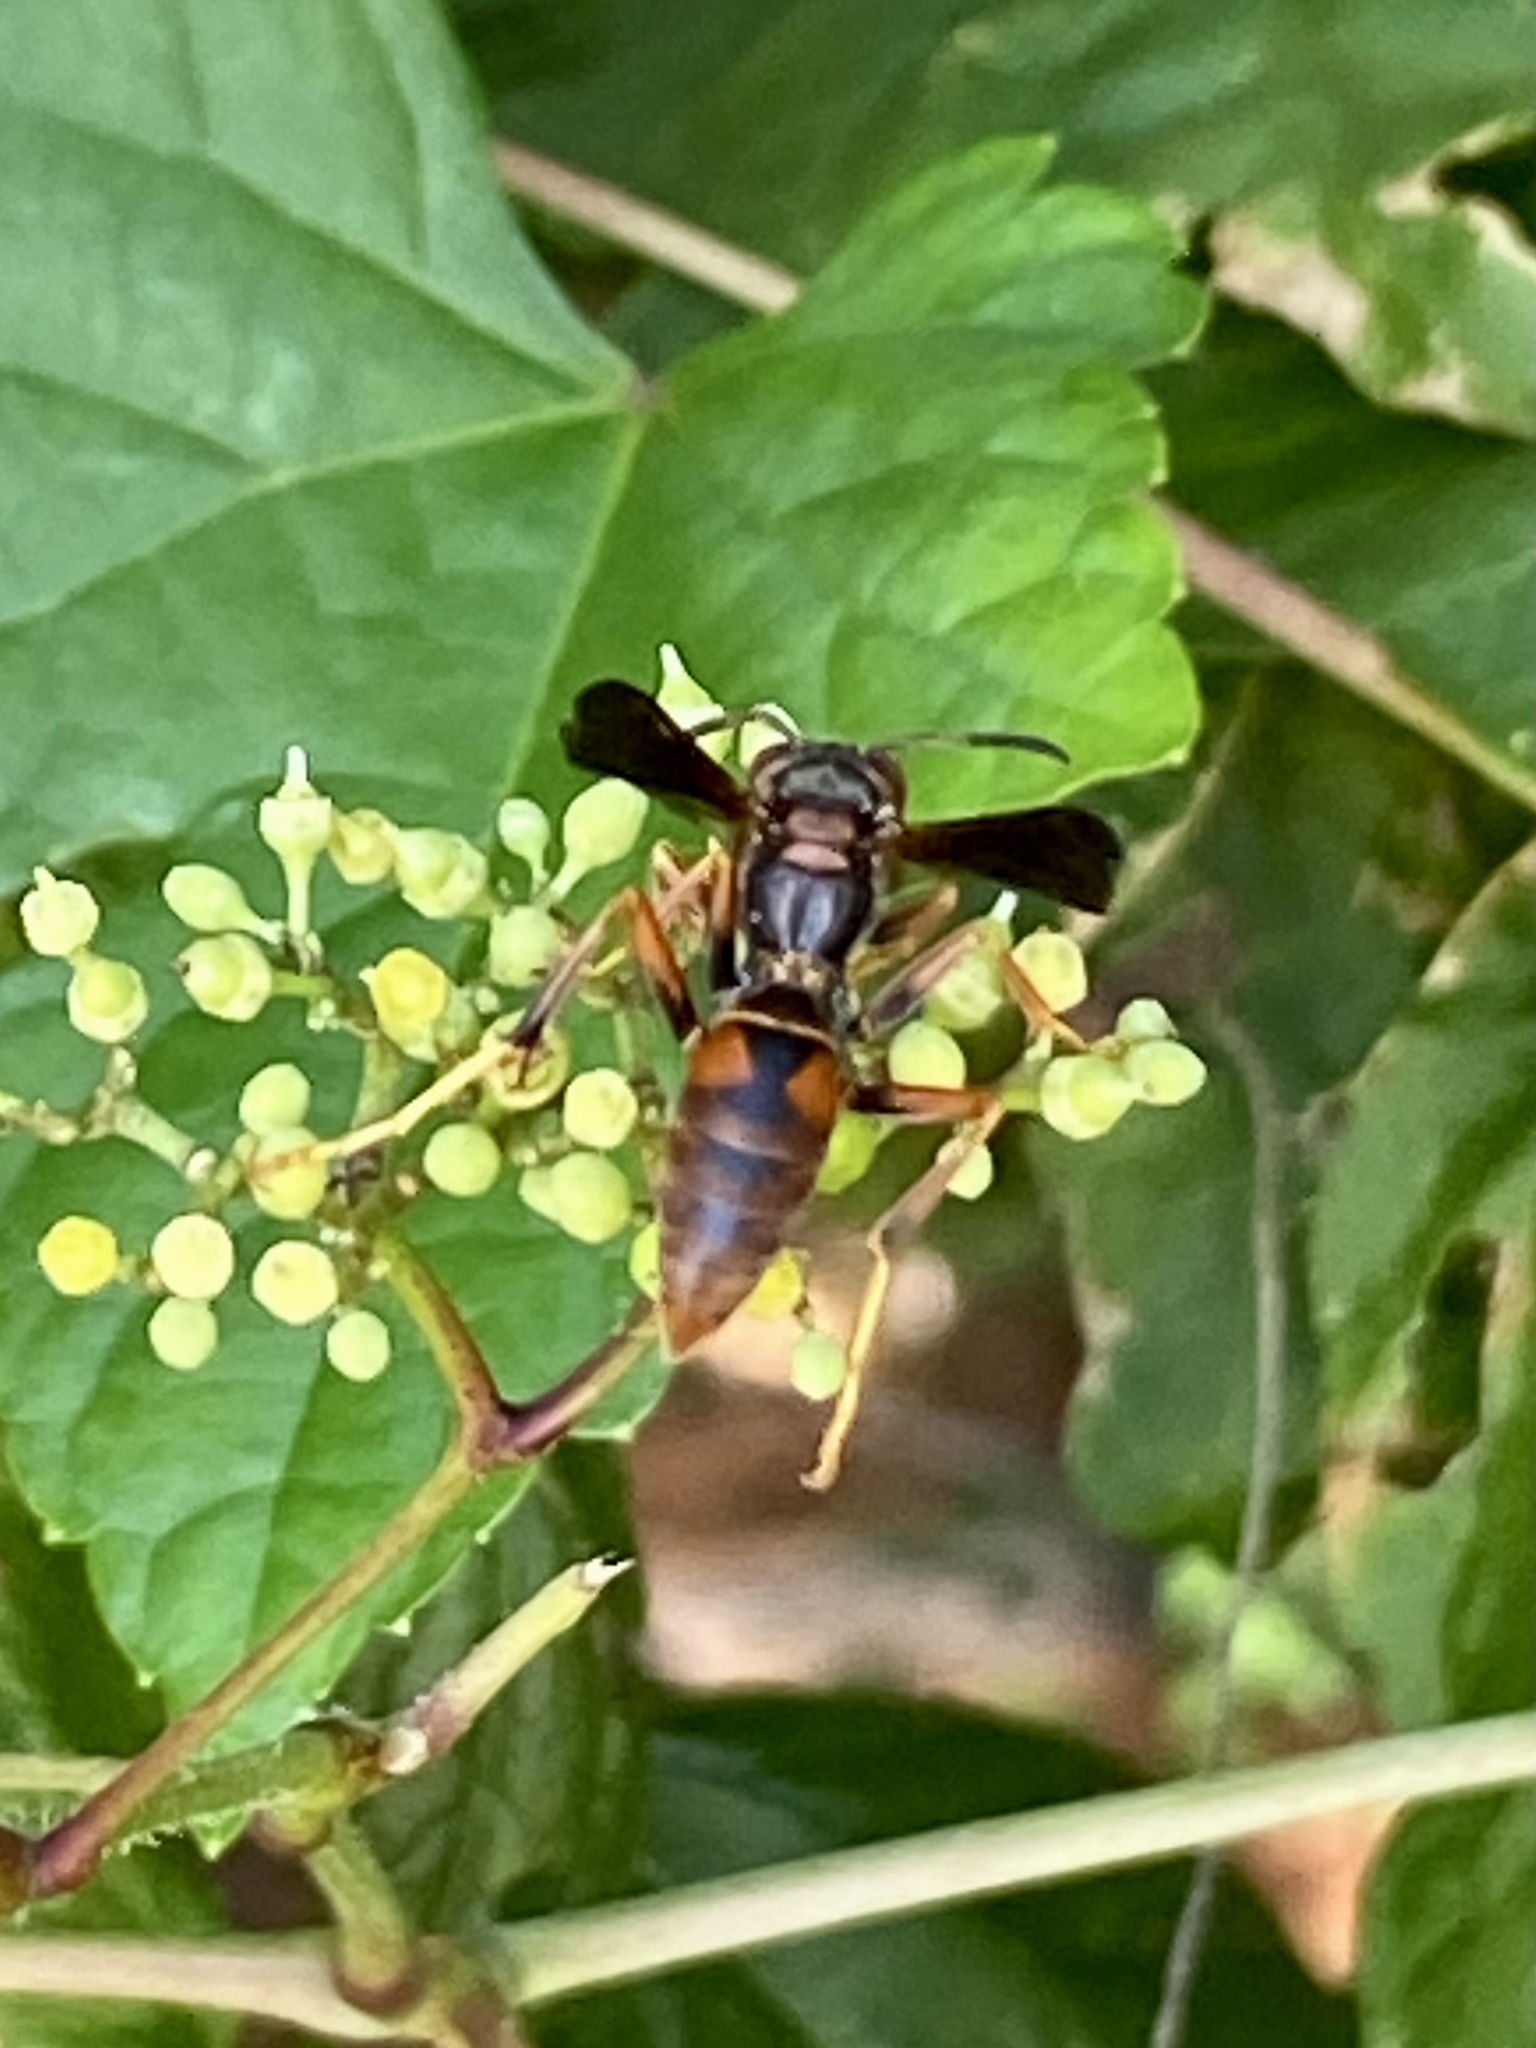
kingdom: Animalia
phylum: Arthropoda
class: Insecta
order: Hymenoptera
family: Eumenidae
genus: Polistes
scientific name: Polistes fuscatus
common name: Dark paper wasp
